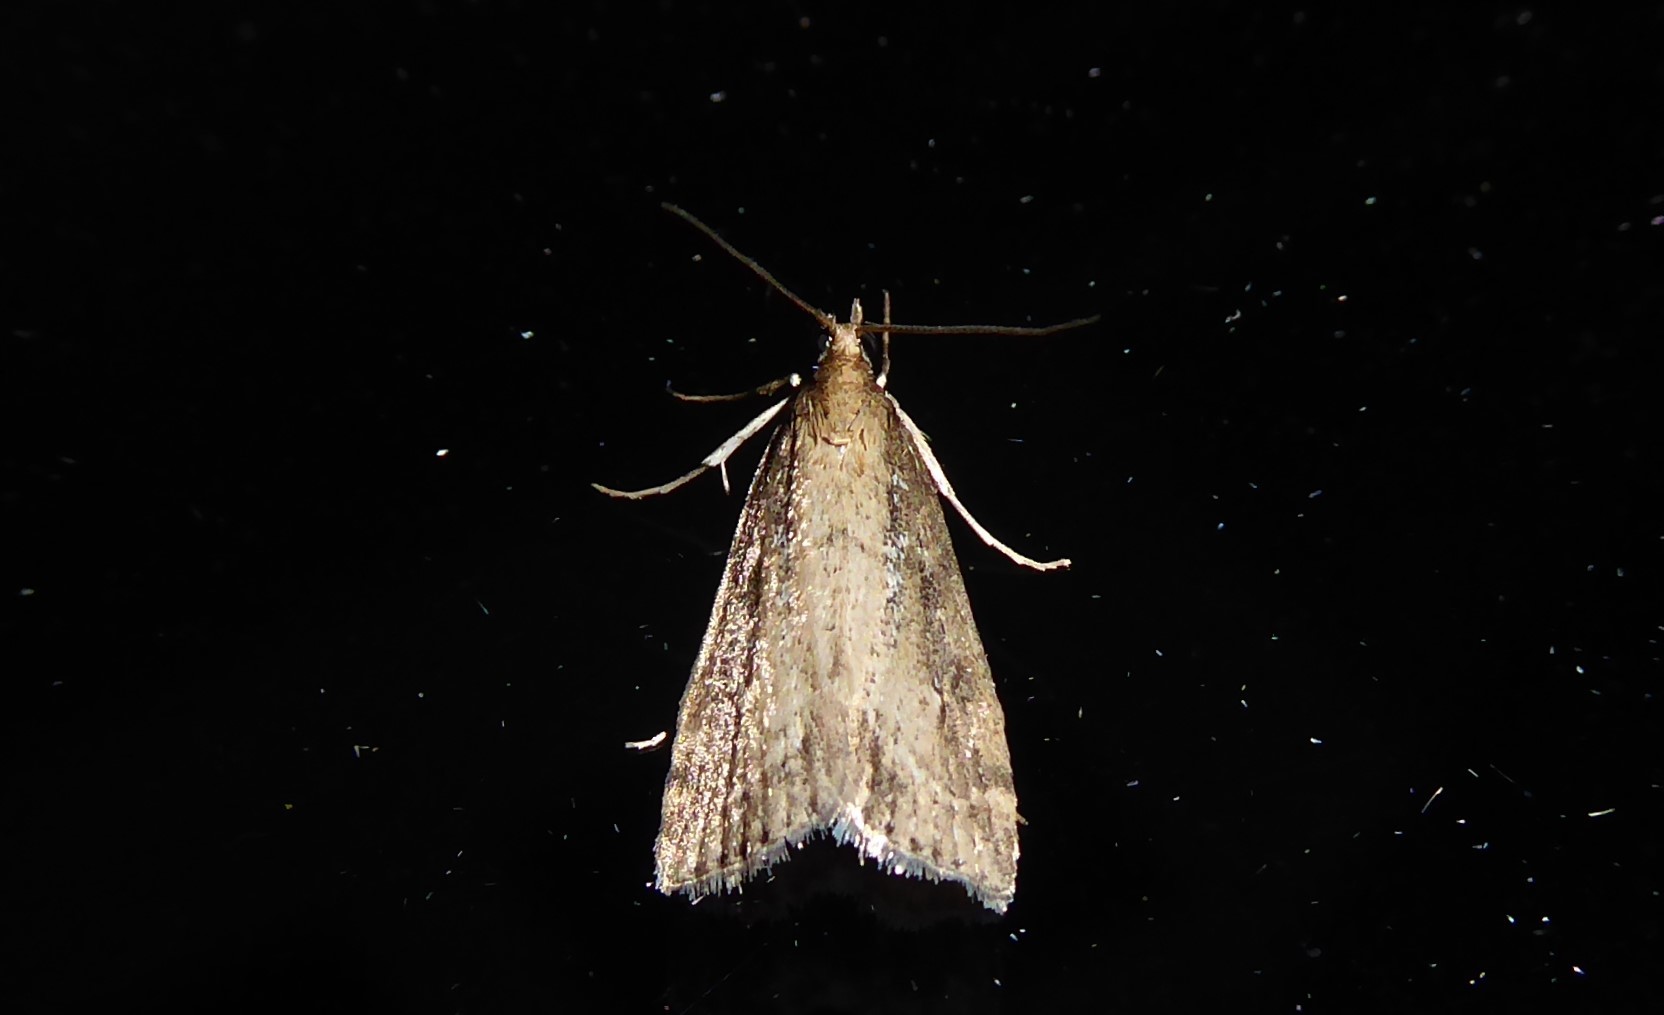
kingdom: Animalia
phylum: Arthropoda
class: Insecta
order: Lepidoptera
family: Crambidae
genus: Eudonia
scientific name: Eudonia octophora
